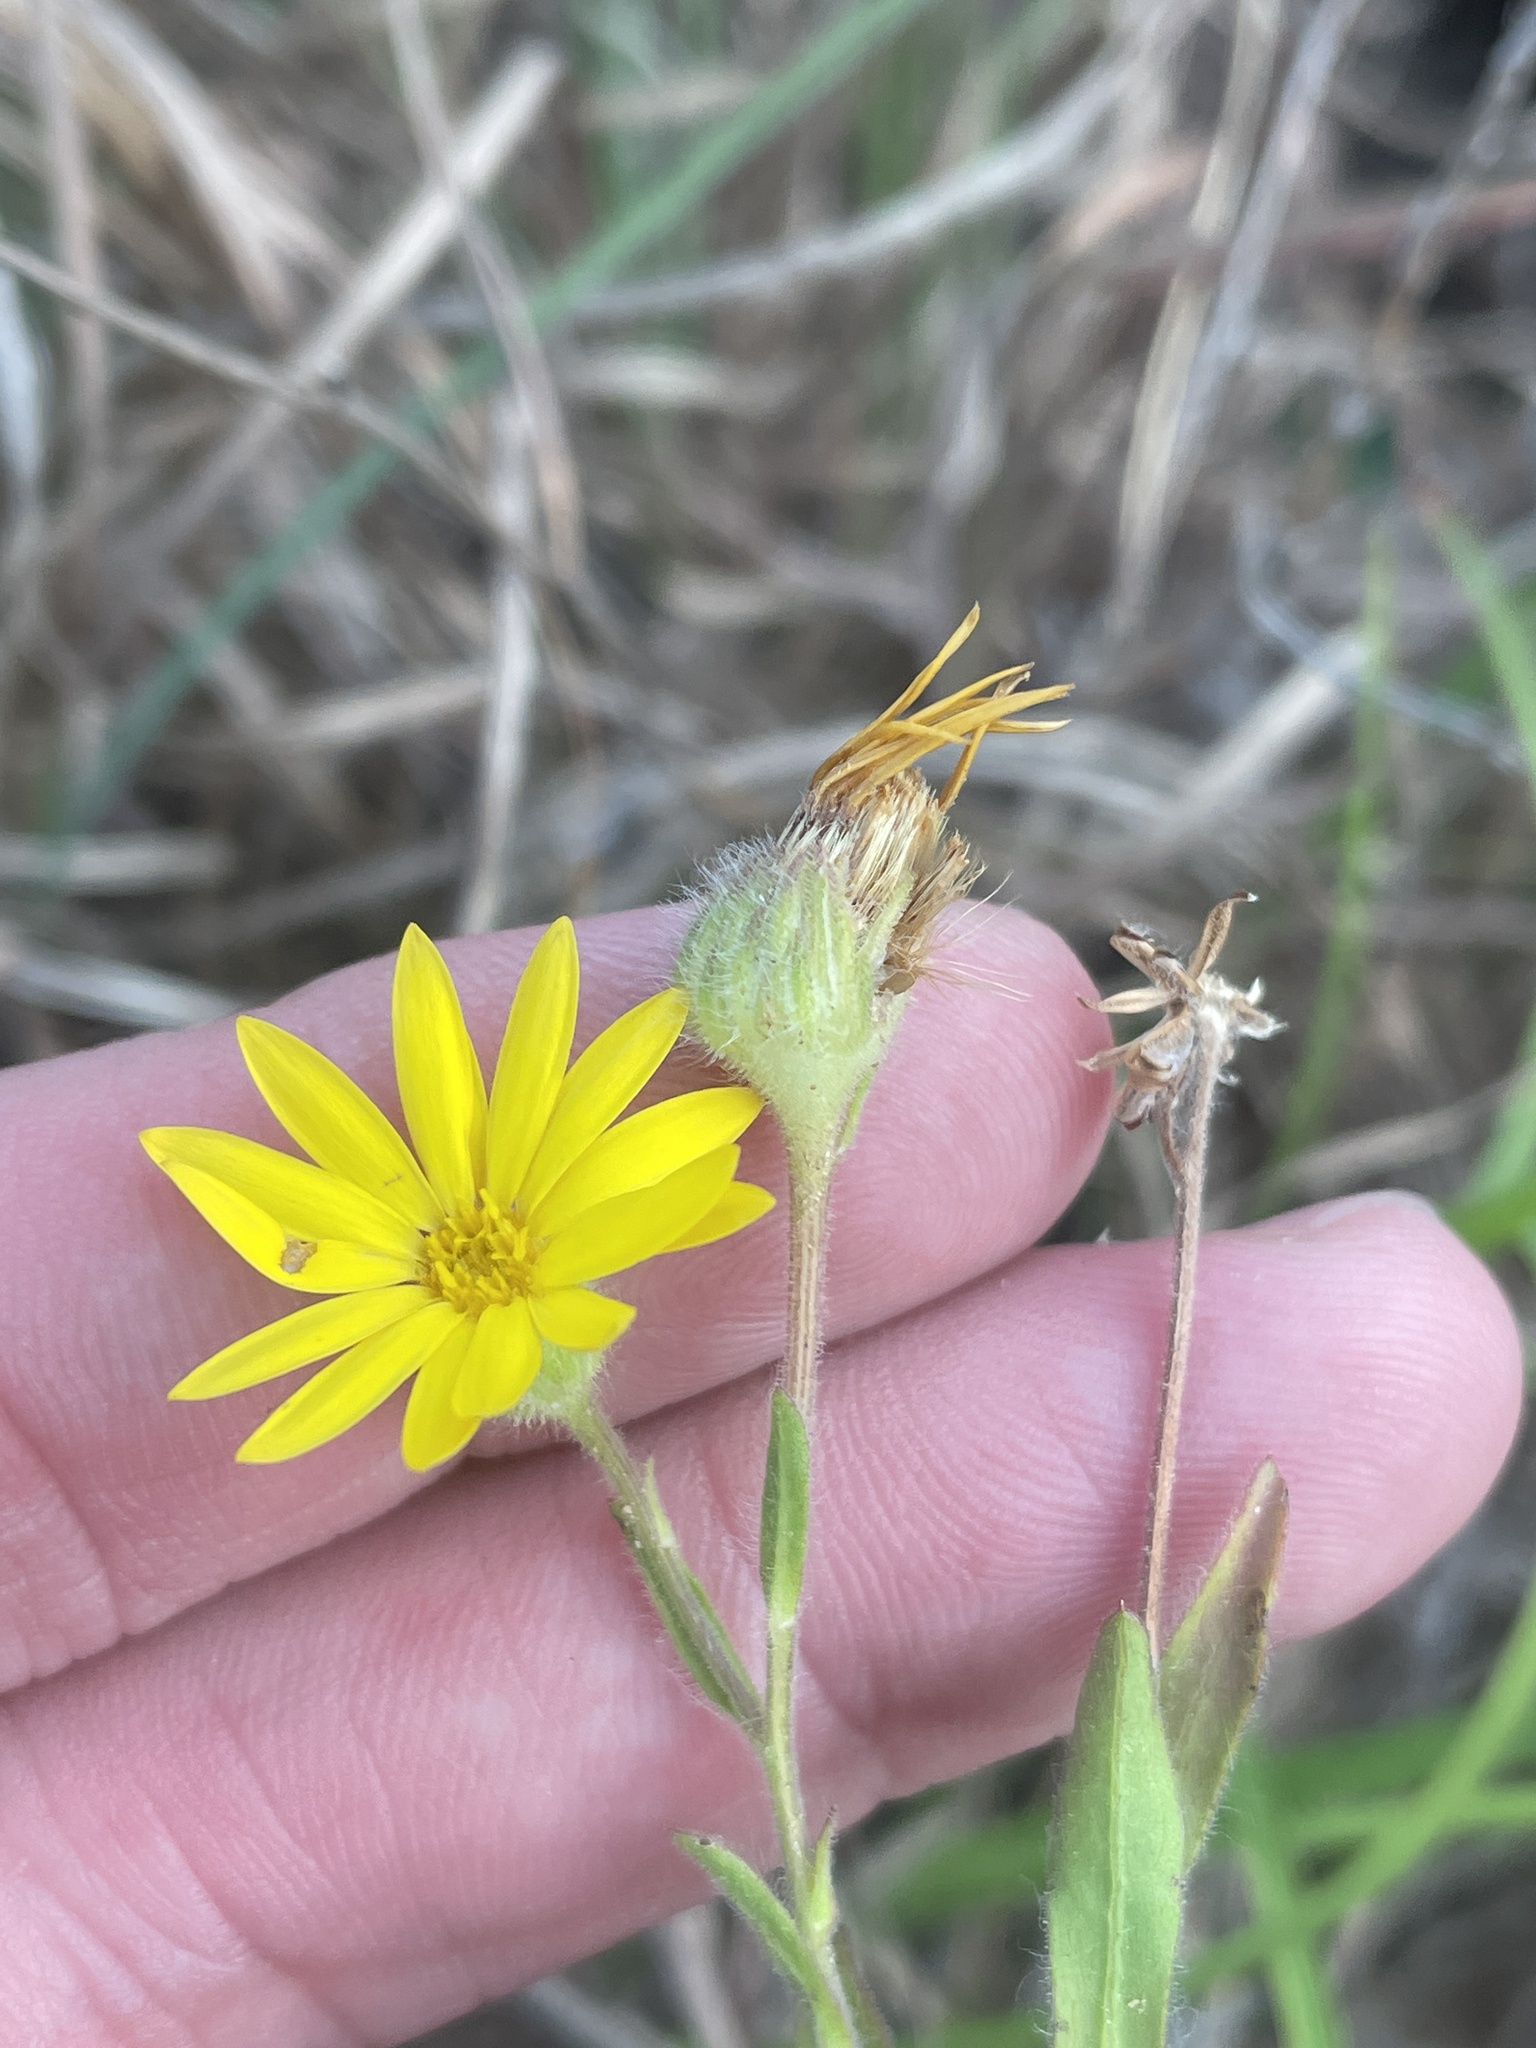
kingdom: Plantae
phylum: Tracheophyta
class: Magnoliopsida
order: Asterales
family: Asteraceae
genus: Bradburia
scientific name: Bradburia pilosa
